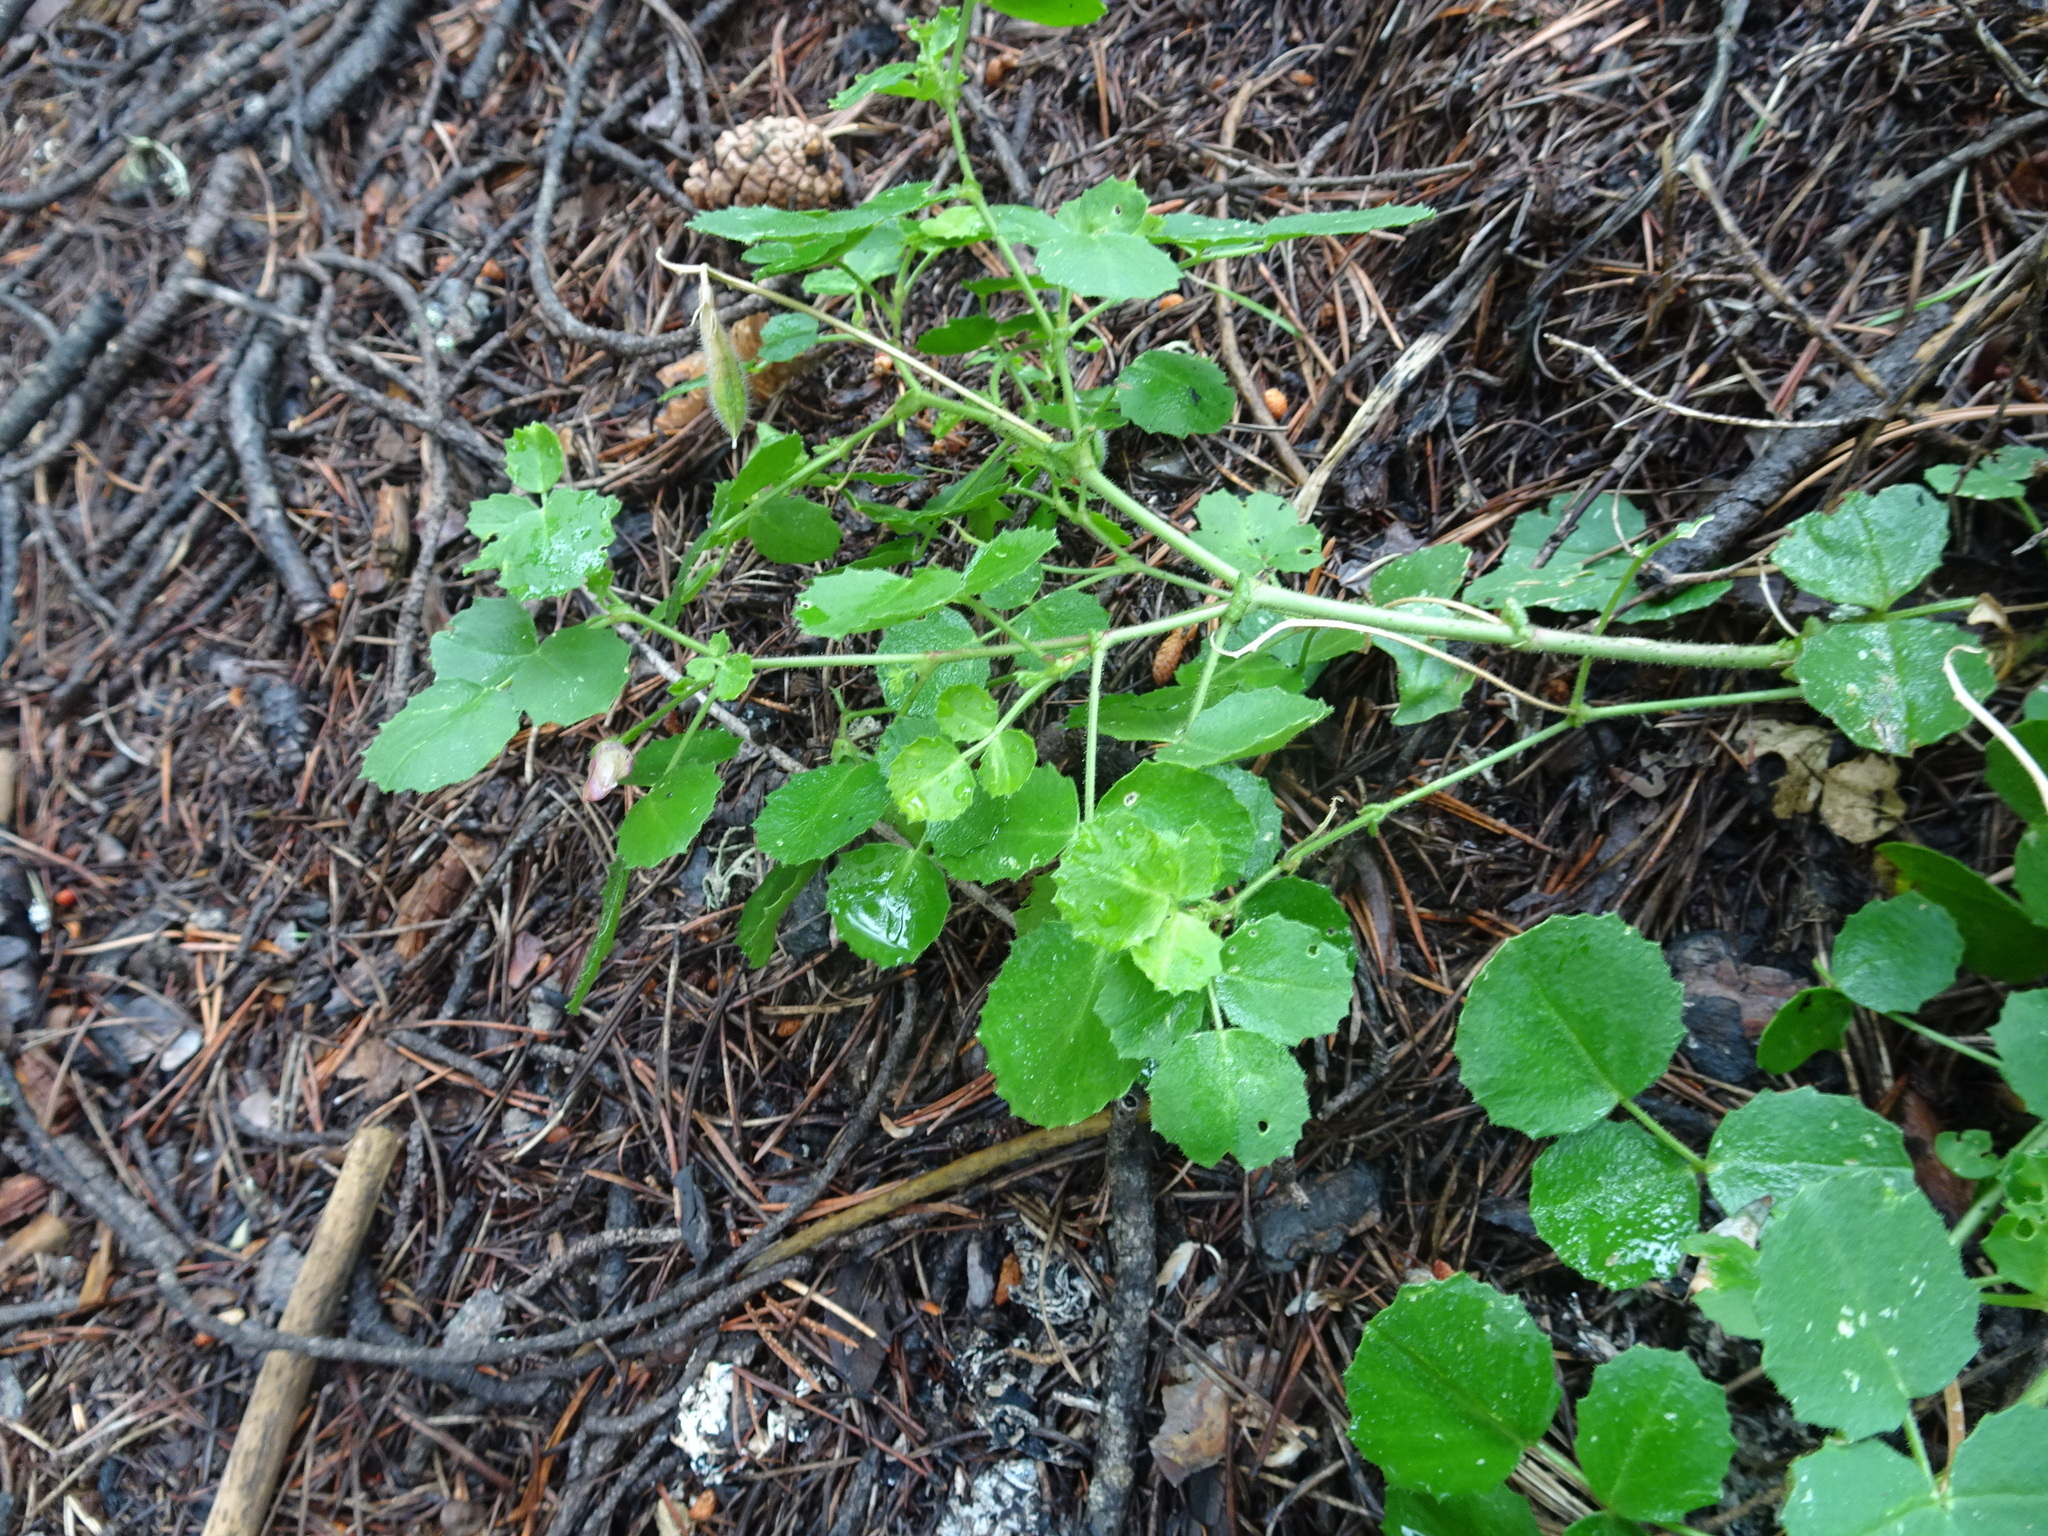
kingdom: Plantae
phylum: Tracheophyta
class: Magnoliopsida
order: Fabales
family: Fabaceae
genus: Ononis
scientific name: Ononis rotundifolia
